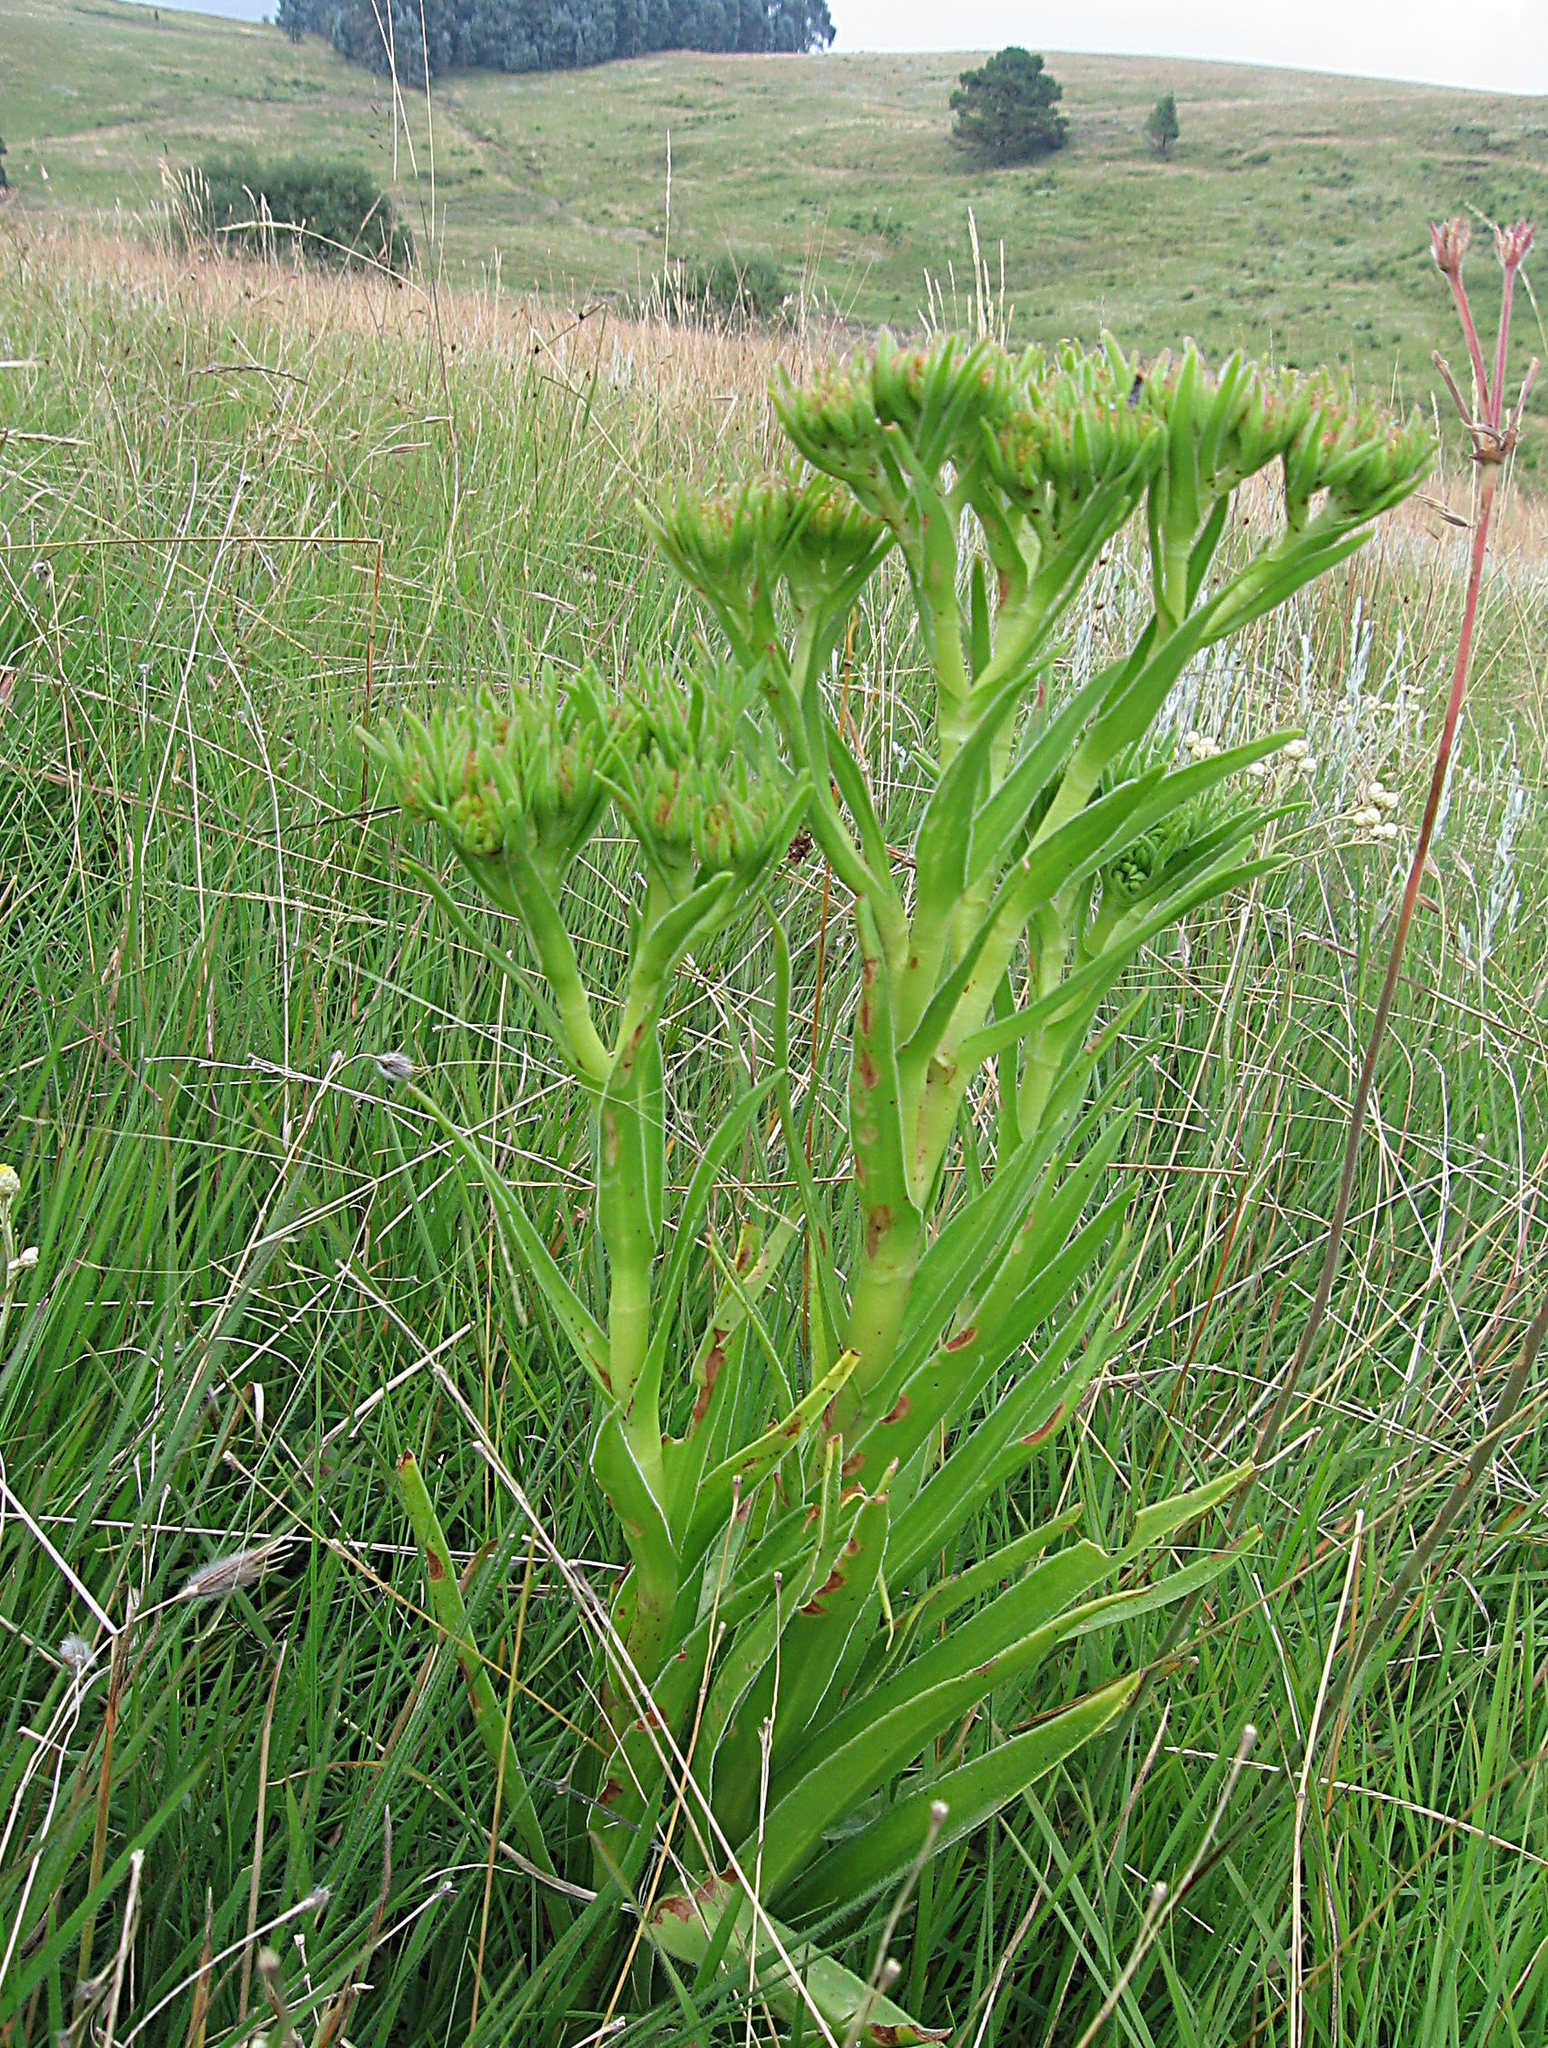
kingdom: Plantae
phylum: Tracheophyta
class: Magnoliopsida
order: Saxifragales
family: Crassulaceae
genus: Crassula
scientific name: Crassula vaginata
